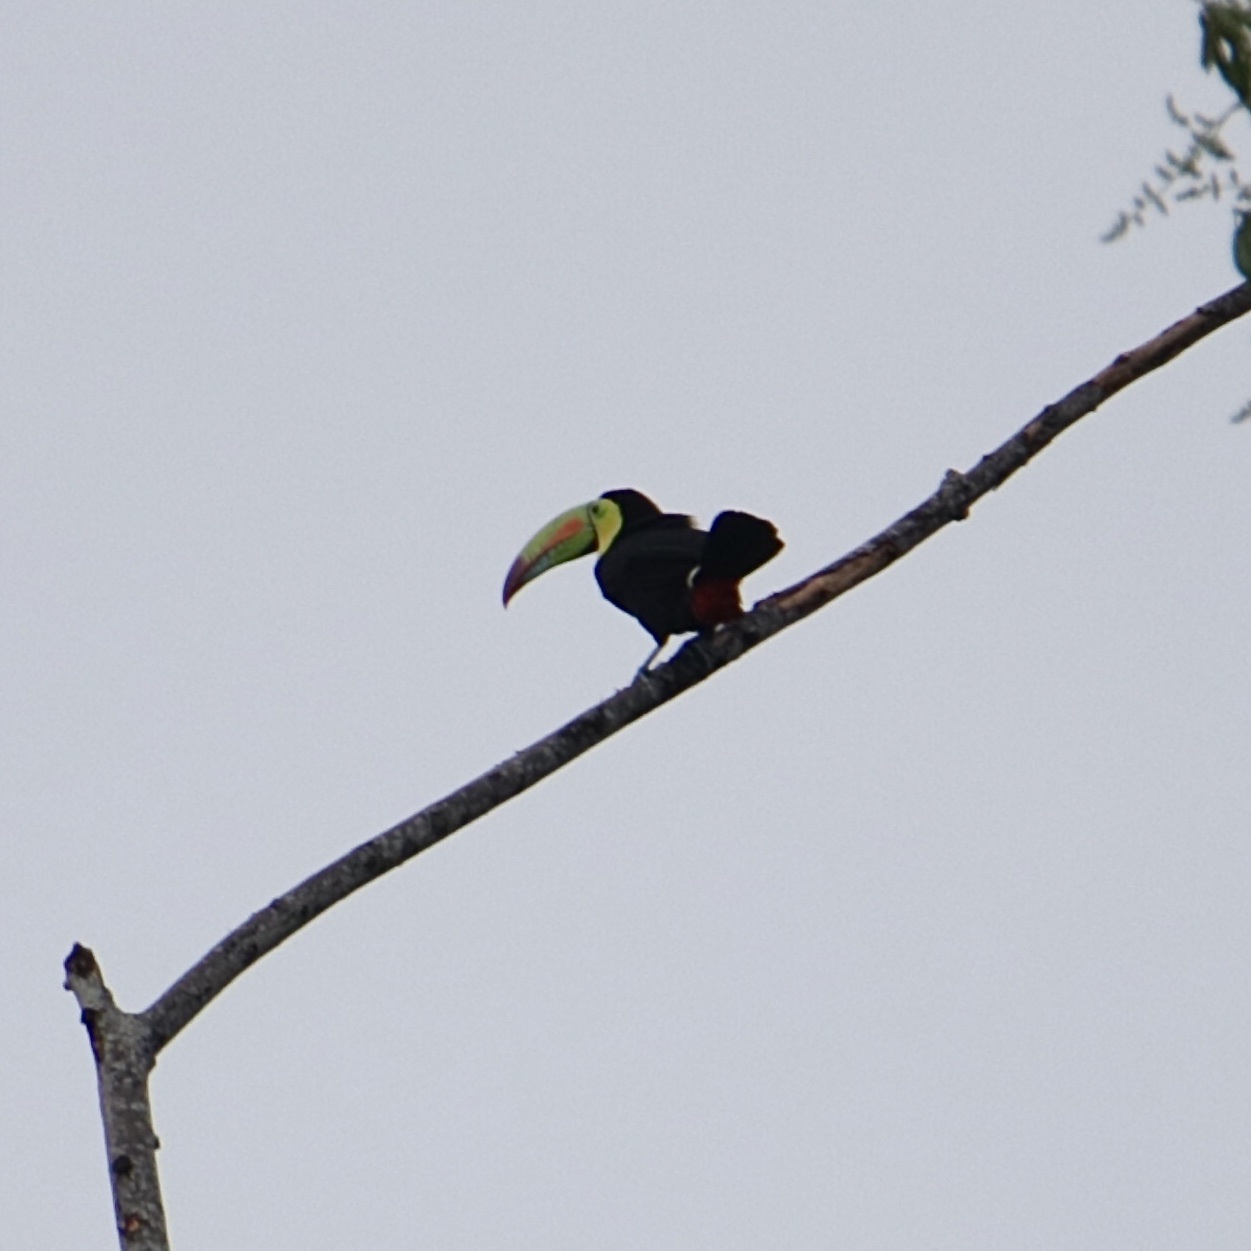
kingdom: Animalia
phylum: Chordata
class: Aves
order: Piciformes
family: Ramphastidae
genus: Ramphastos
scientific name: Ramphastos sulfuratus
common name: Keel-billed toucan
